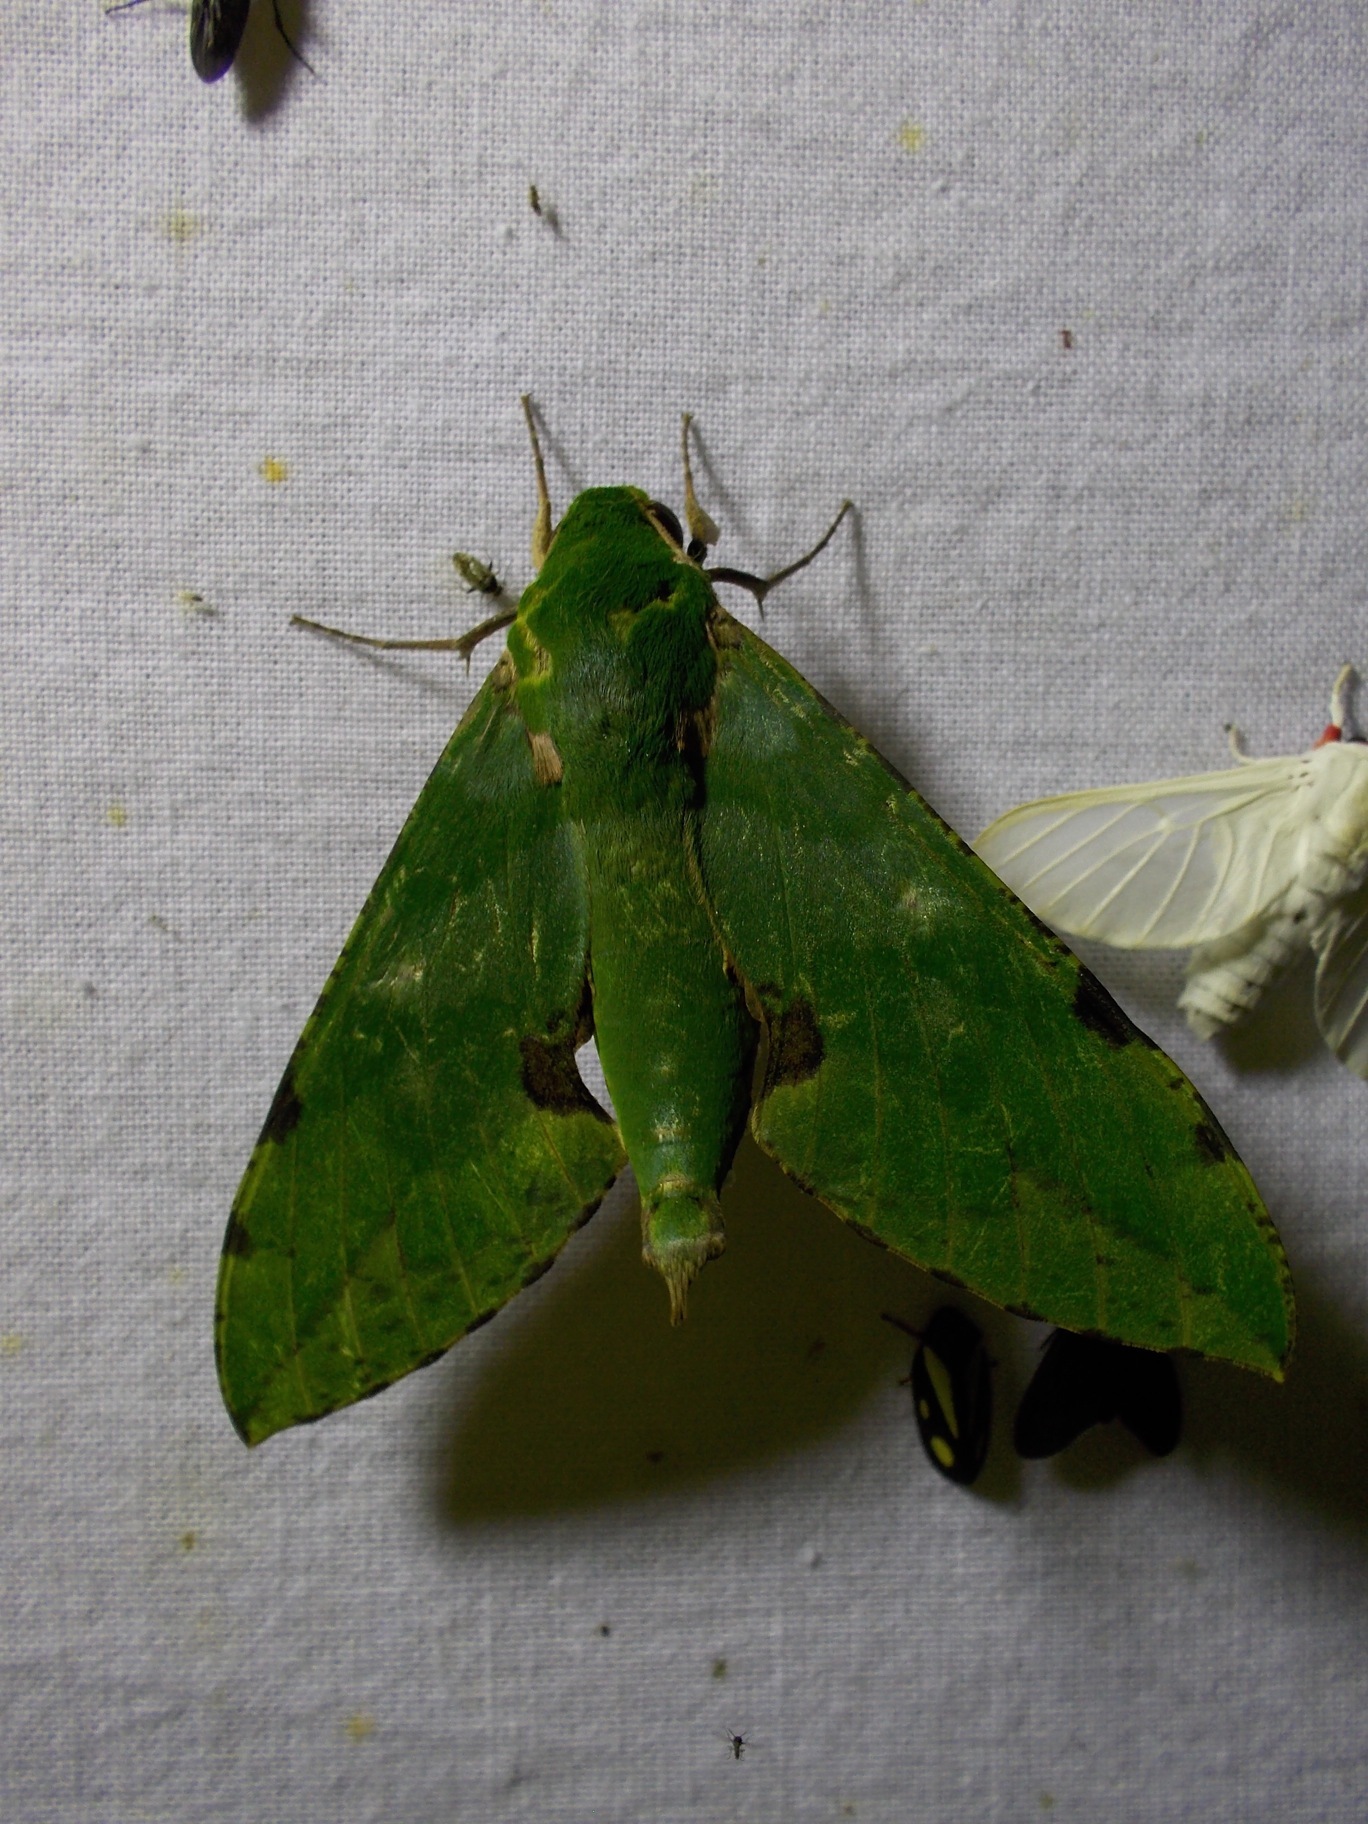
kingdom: Animalia
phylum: Arthropoda
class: Insecta
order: Lepidoptera
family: Sphingidae
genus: Euchloron
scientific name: Euchloron megaera
